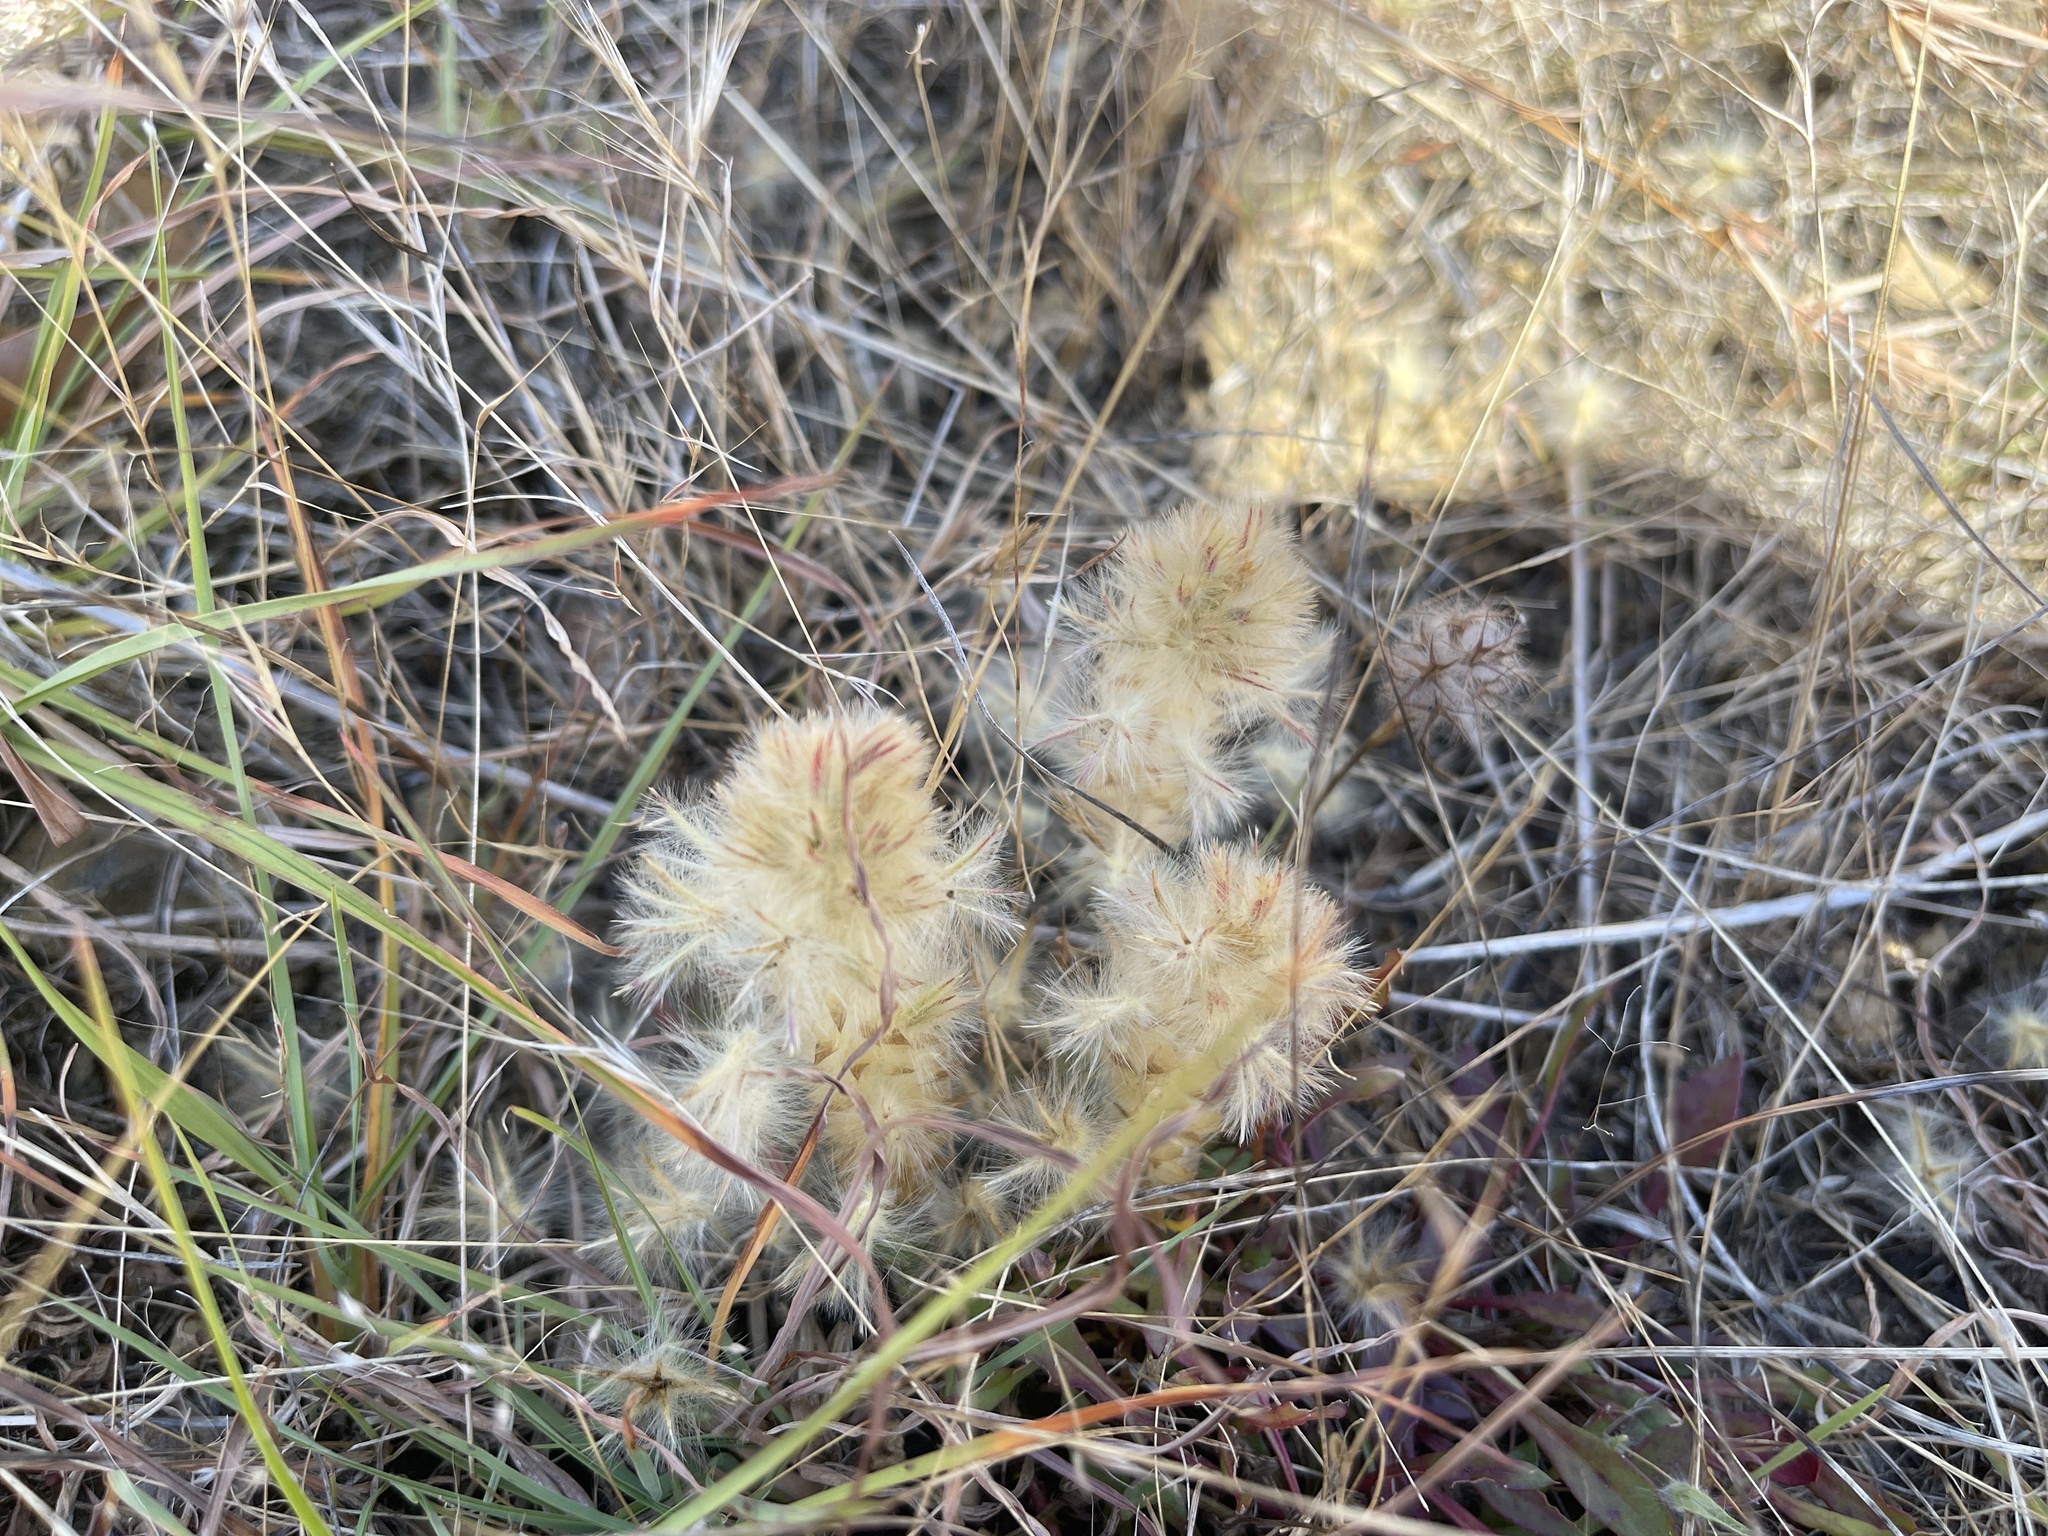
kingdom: Plantae
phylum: Tracheophyta
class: Magnoliopsida
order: Caryophyllales
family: Amaranthaceae
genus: Ptilotus
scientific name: Ptilotus spathulatus
